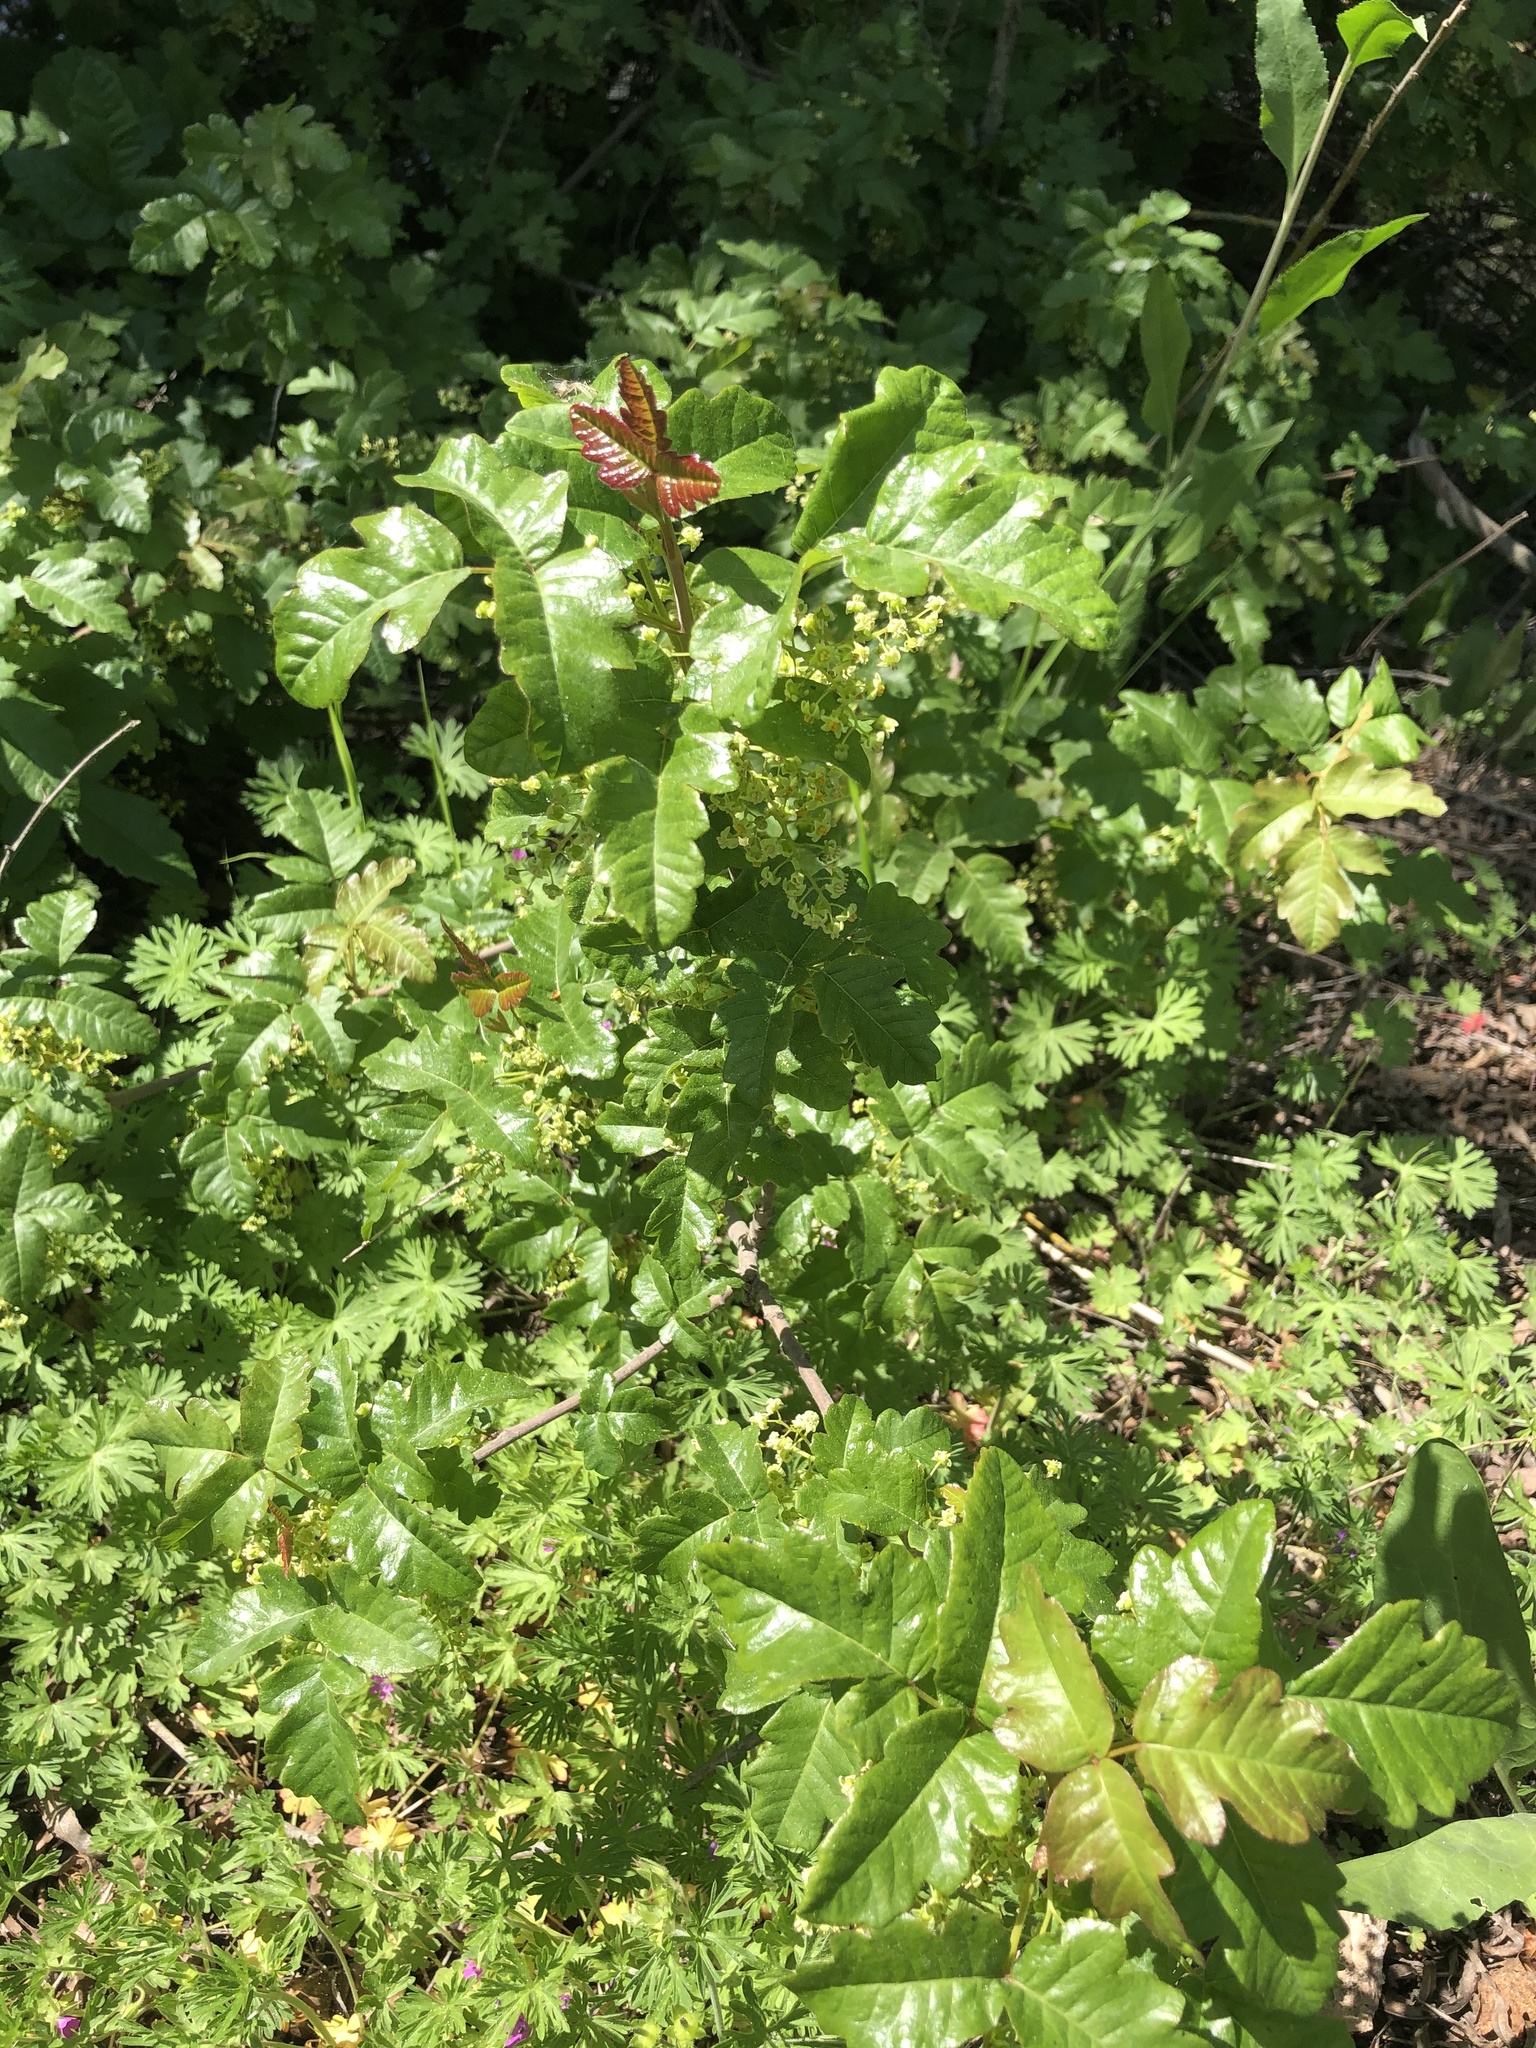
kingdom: Plantae
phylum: Tracheophyta
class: Magnoliopsida
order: Sapindales
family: Anacardiaceae
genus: Toxicodendron
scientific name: Toxicodendron diversilobum
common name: Pacific poison-oak
